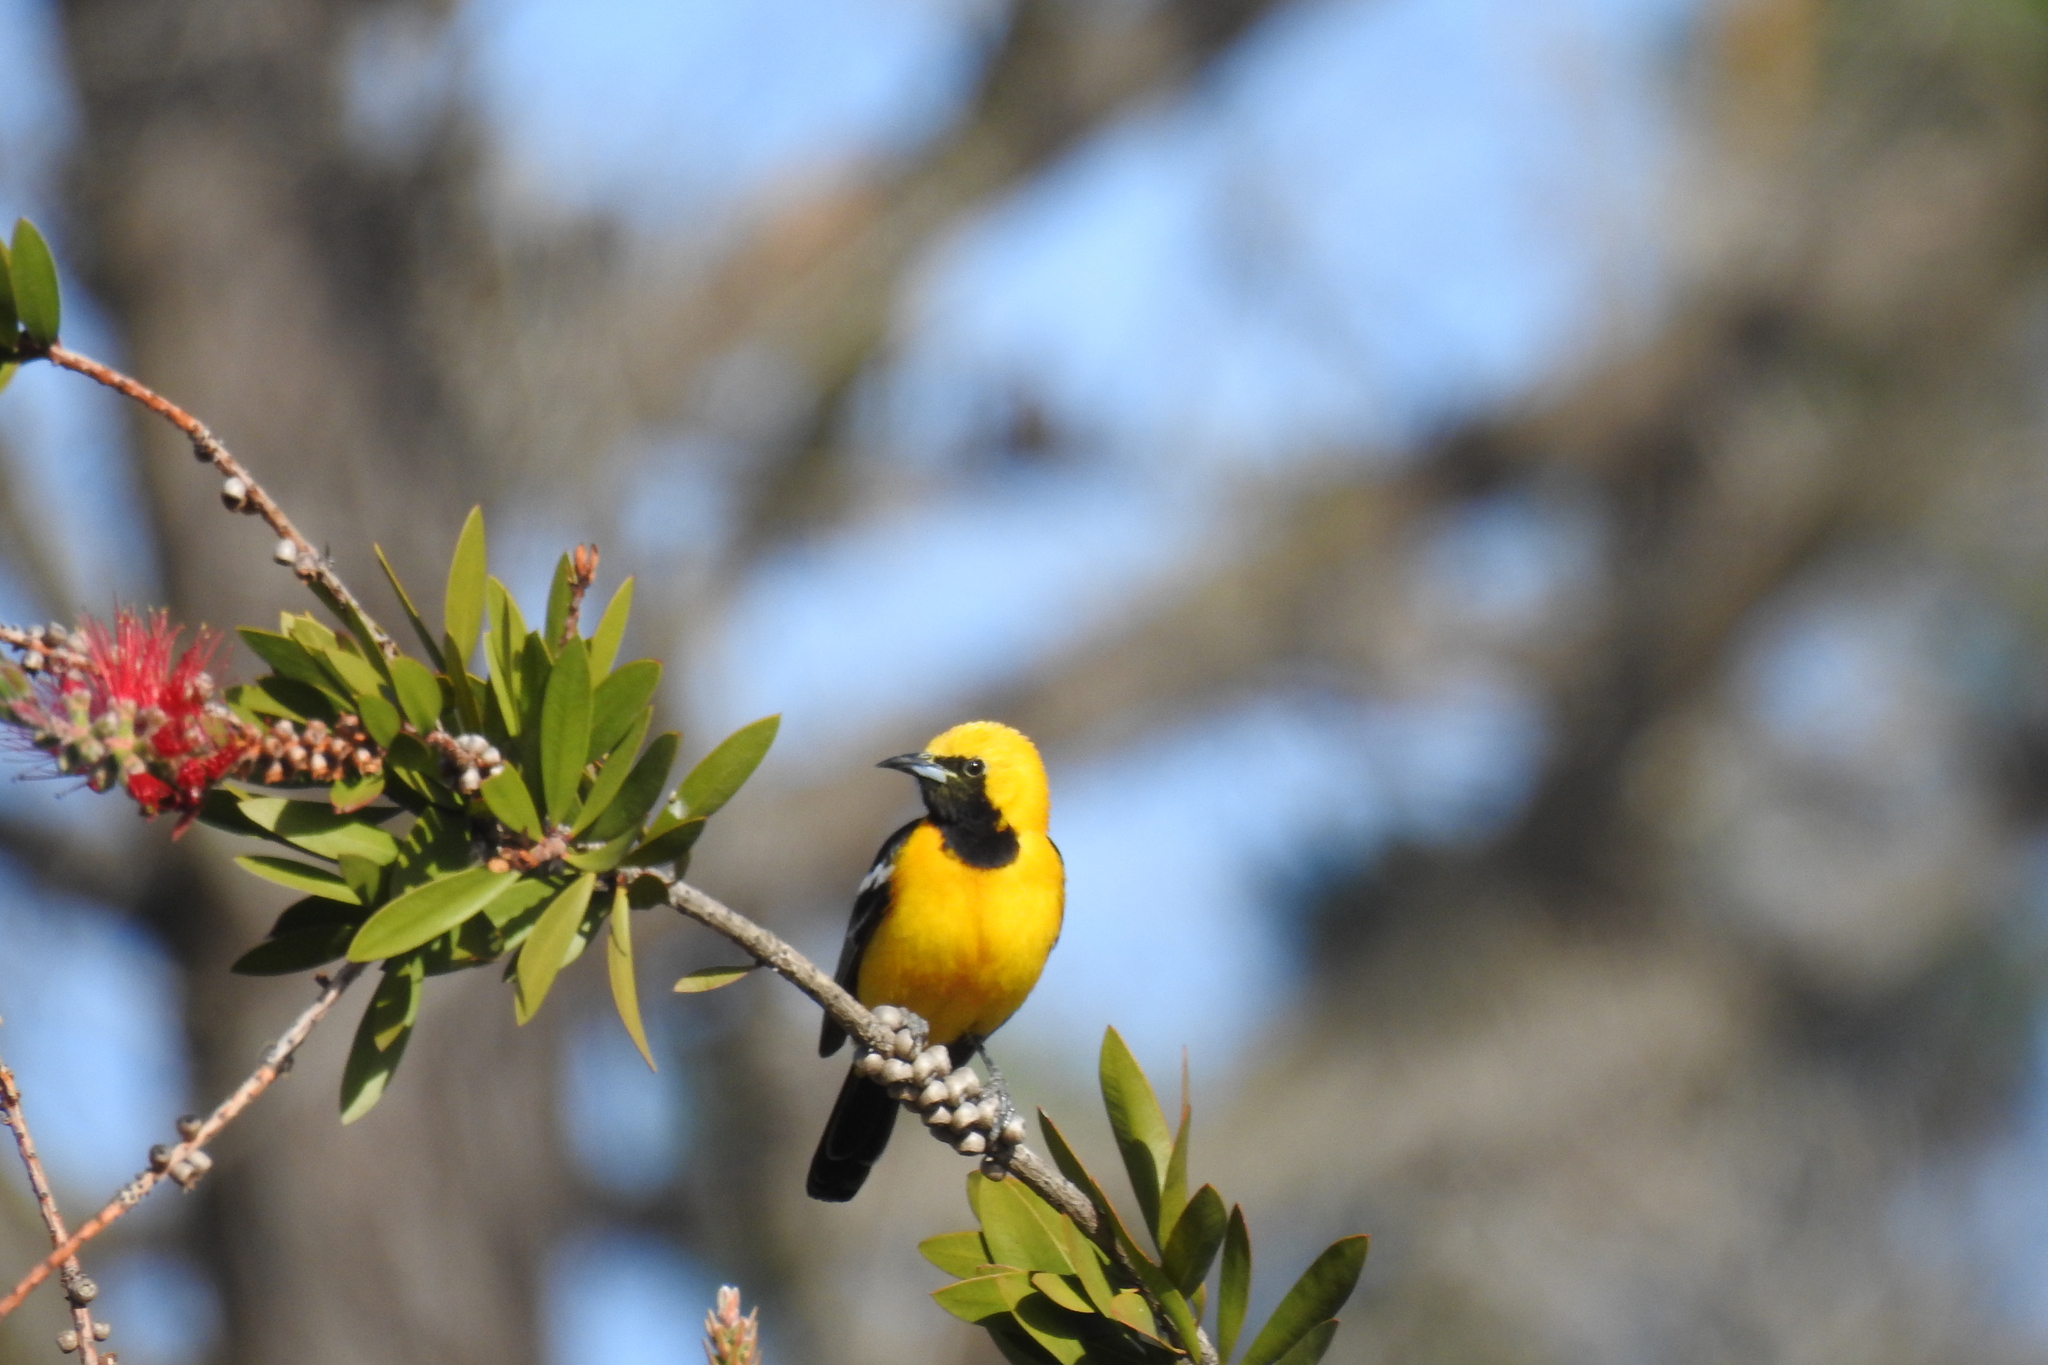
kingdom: Animalia
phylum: Chordata
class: Aves
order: Passeriformes
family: Icteridae
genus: Icterus
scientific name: Icterus cucullatus
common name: Hooded oriole
